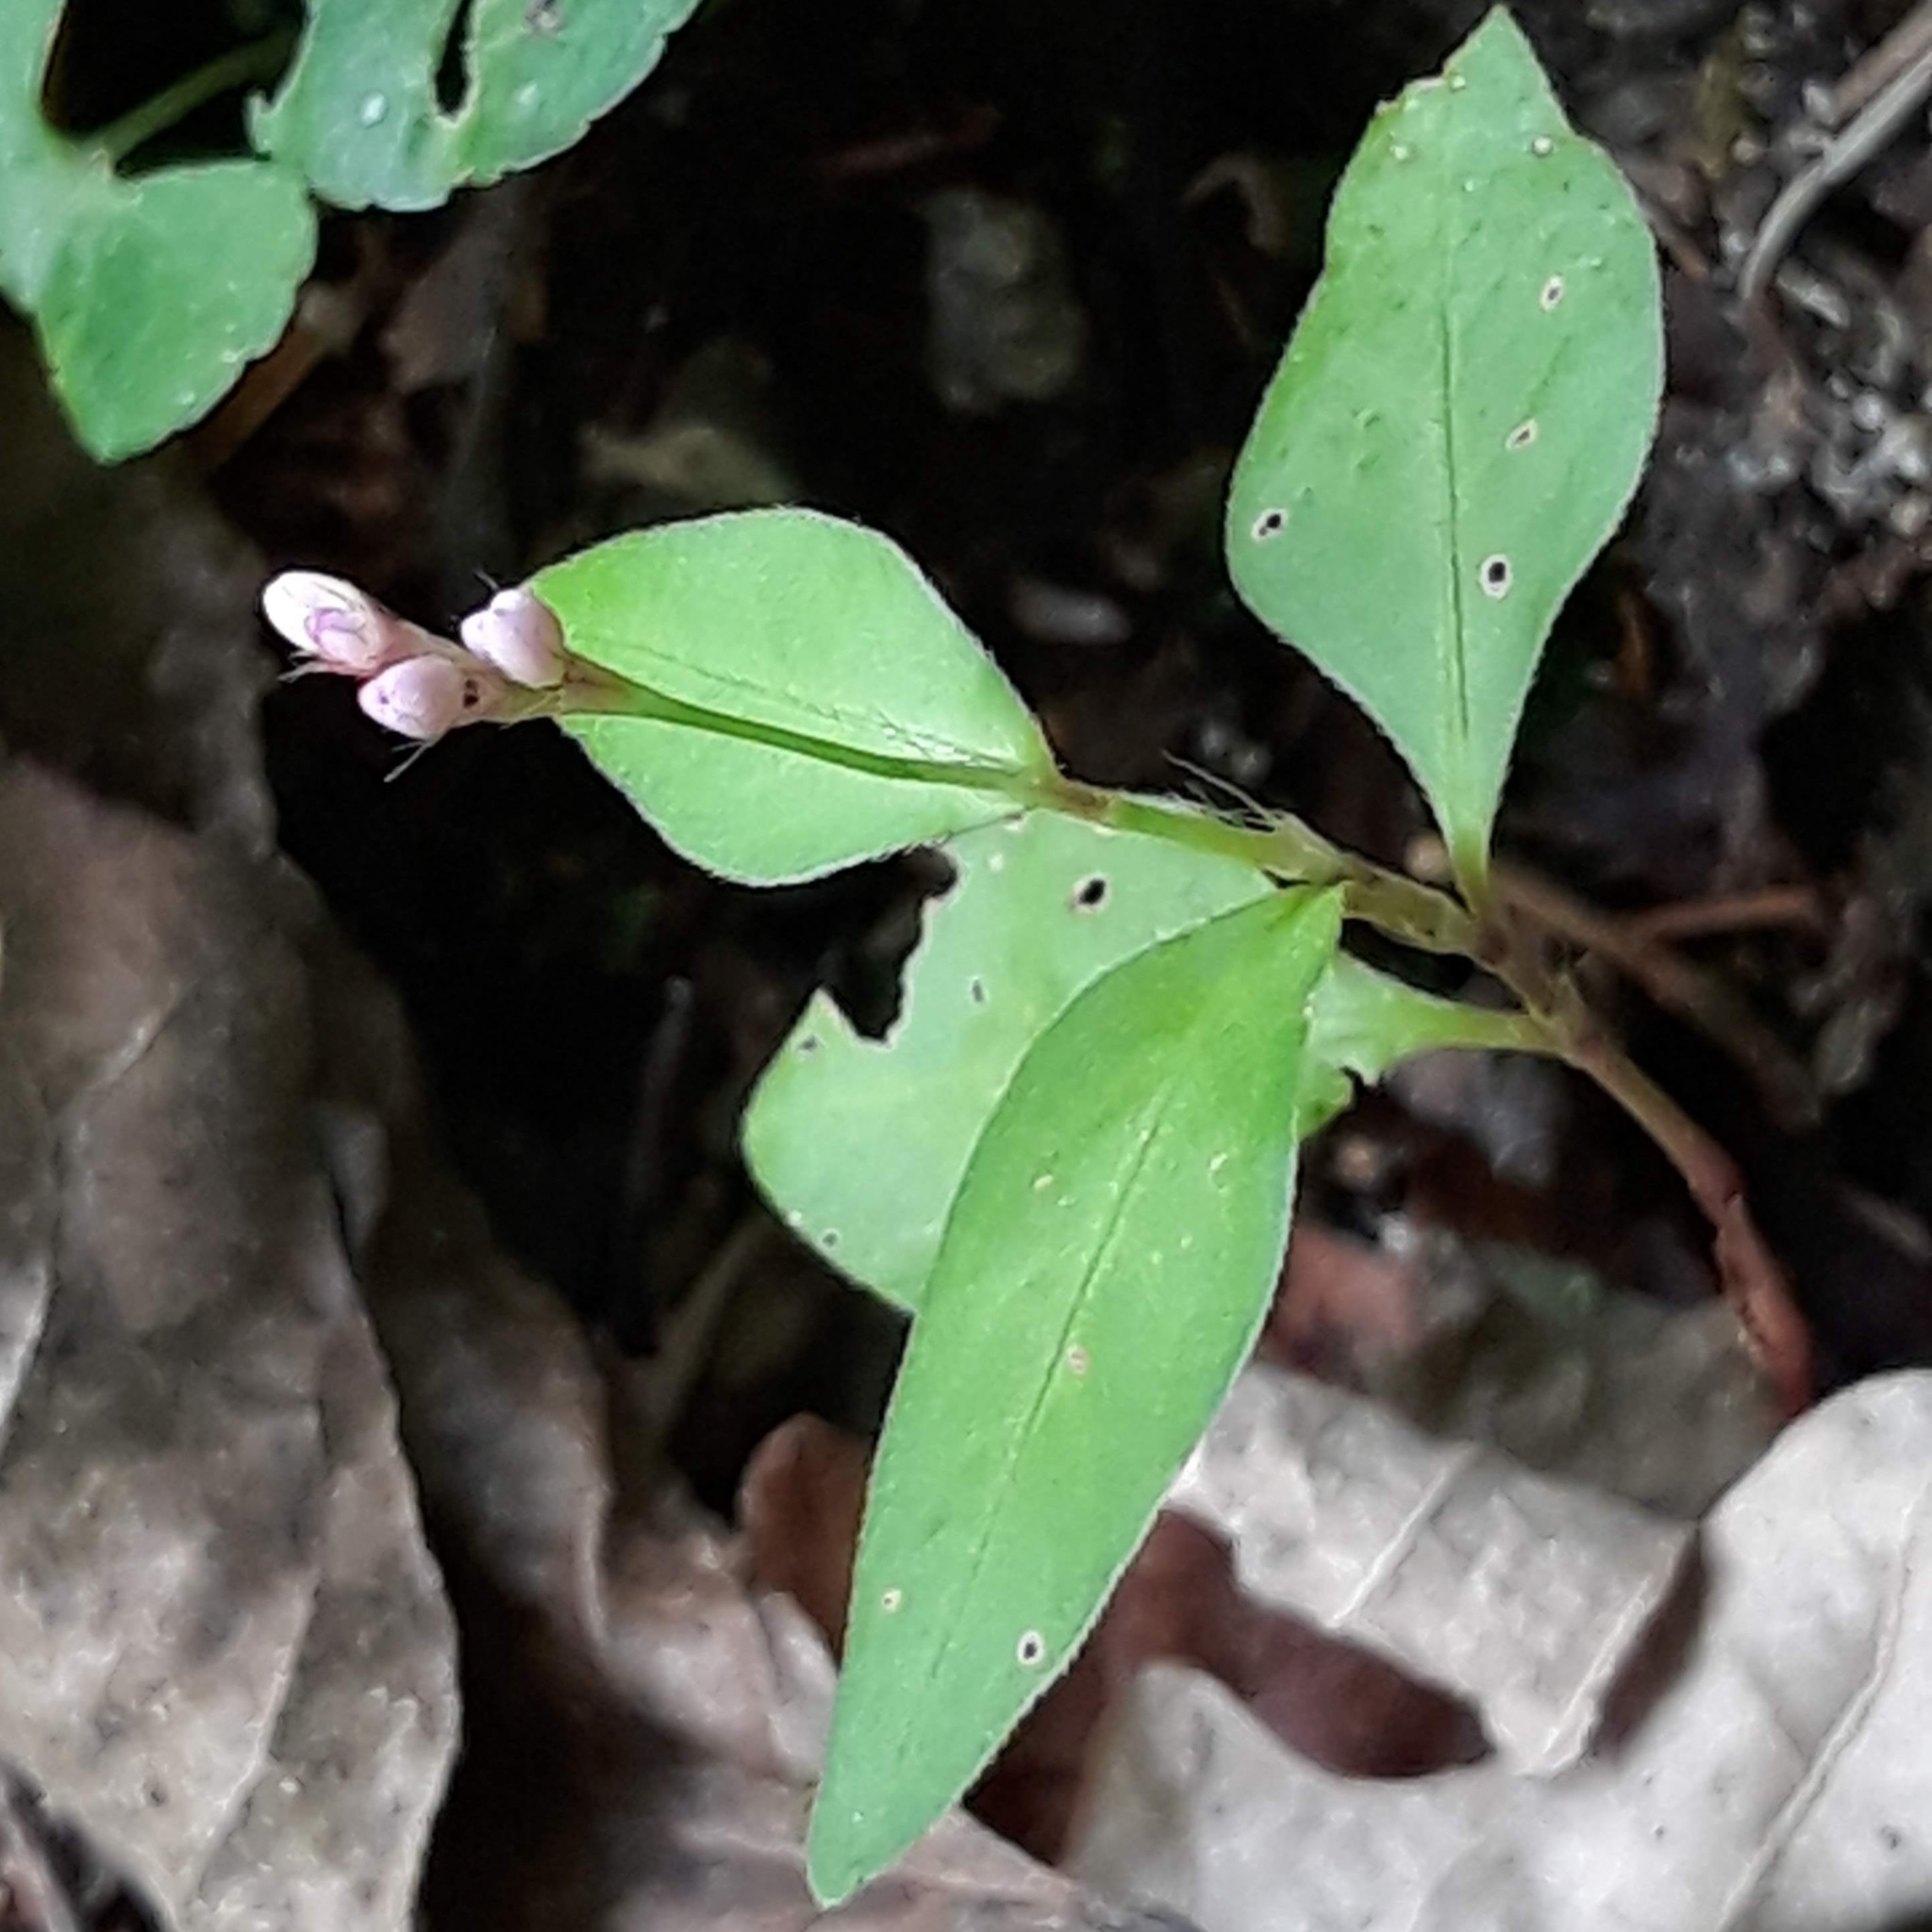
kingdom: Plantae
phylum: Tracheophyta
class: Magnoliopsida
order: Caryophyllales
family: Polygonaceae
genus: Persicaria
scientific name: Persicaria longiseta
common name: Bristly lady's-thumb
